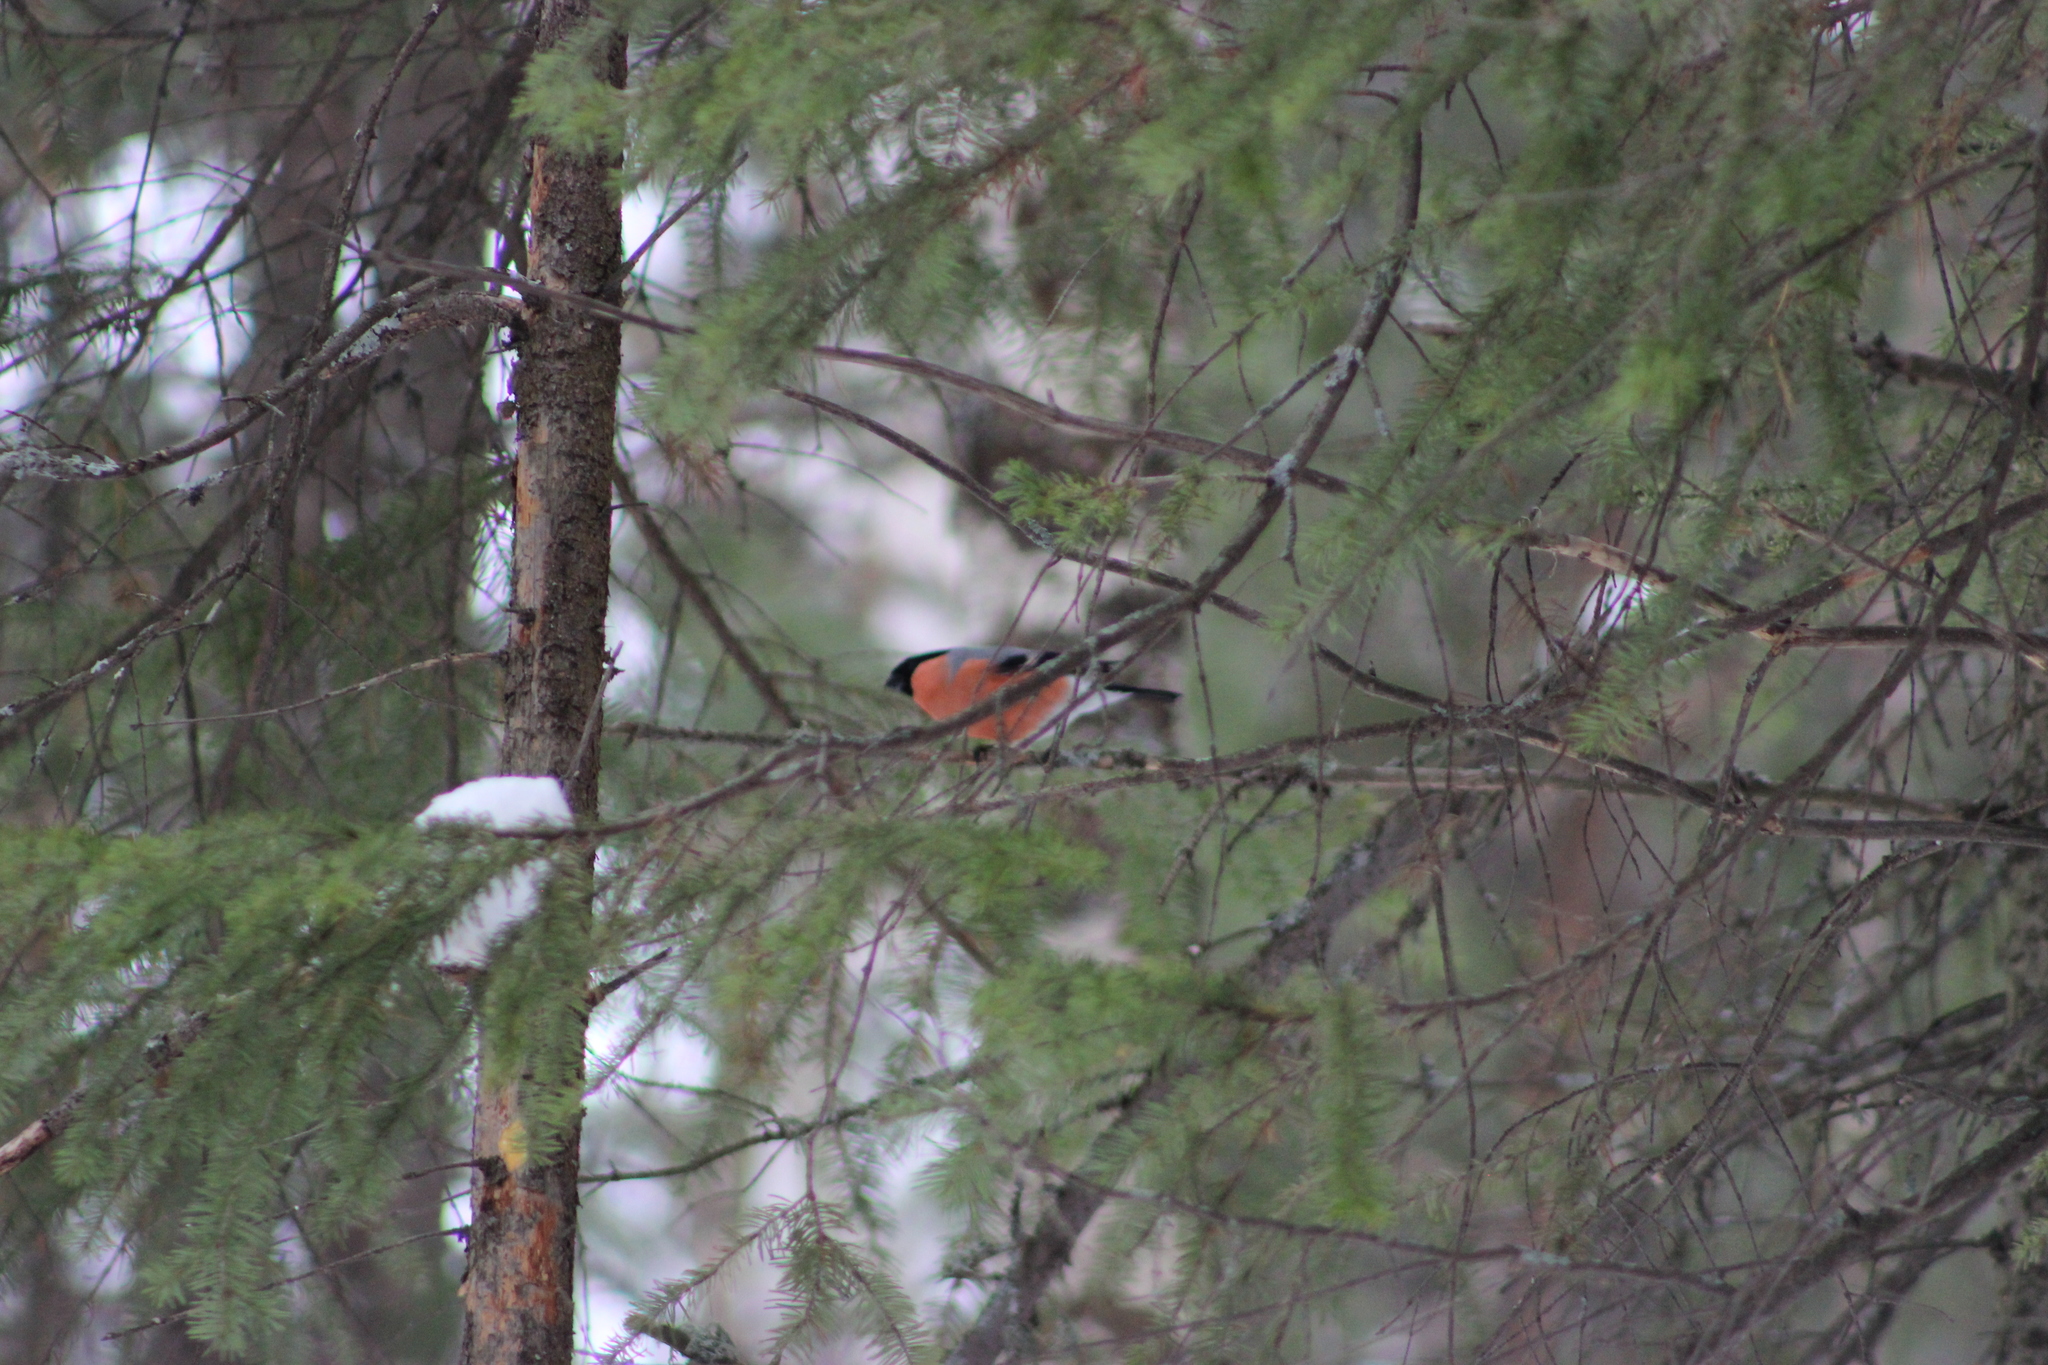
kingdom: Animalia
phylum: Chordata
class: Aves
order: Passeriformes
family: Fringillidae
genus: Pyrrhula
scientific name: Pyrrhula pyrrhula
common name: Eurasian bullfinch
